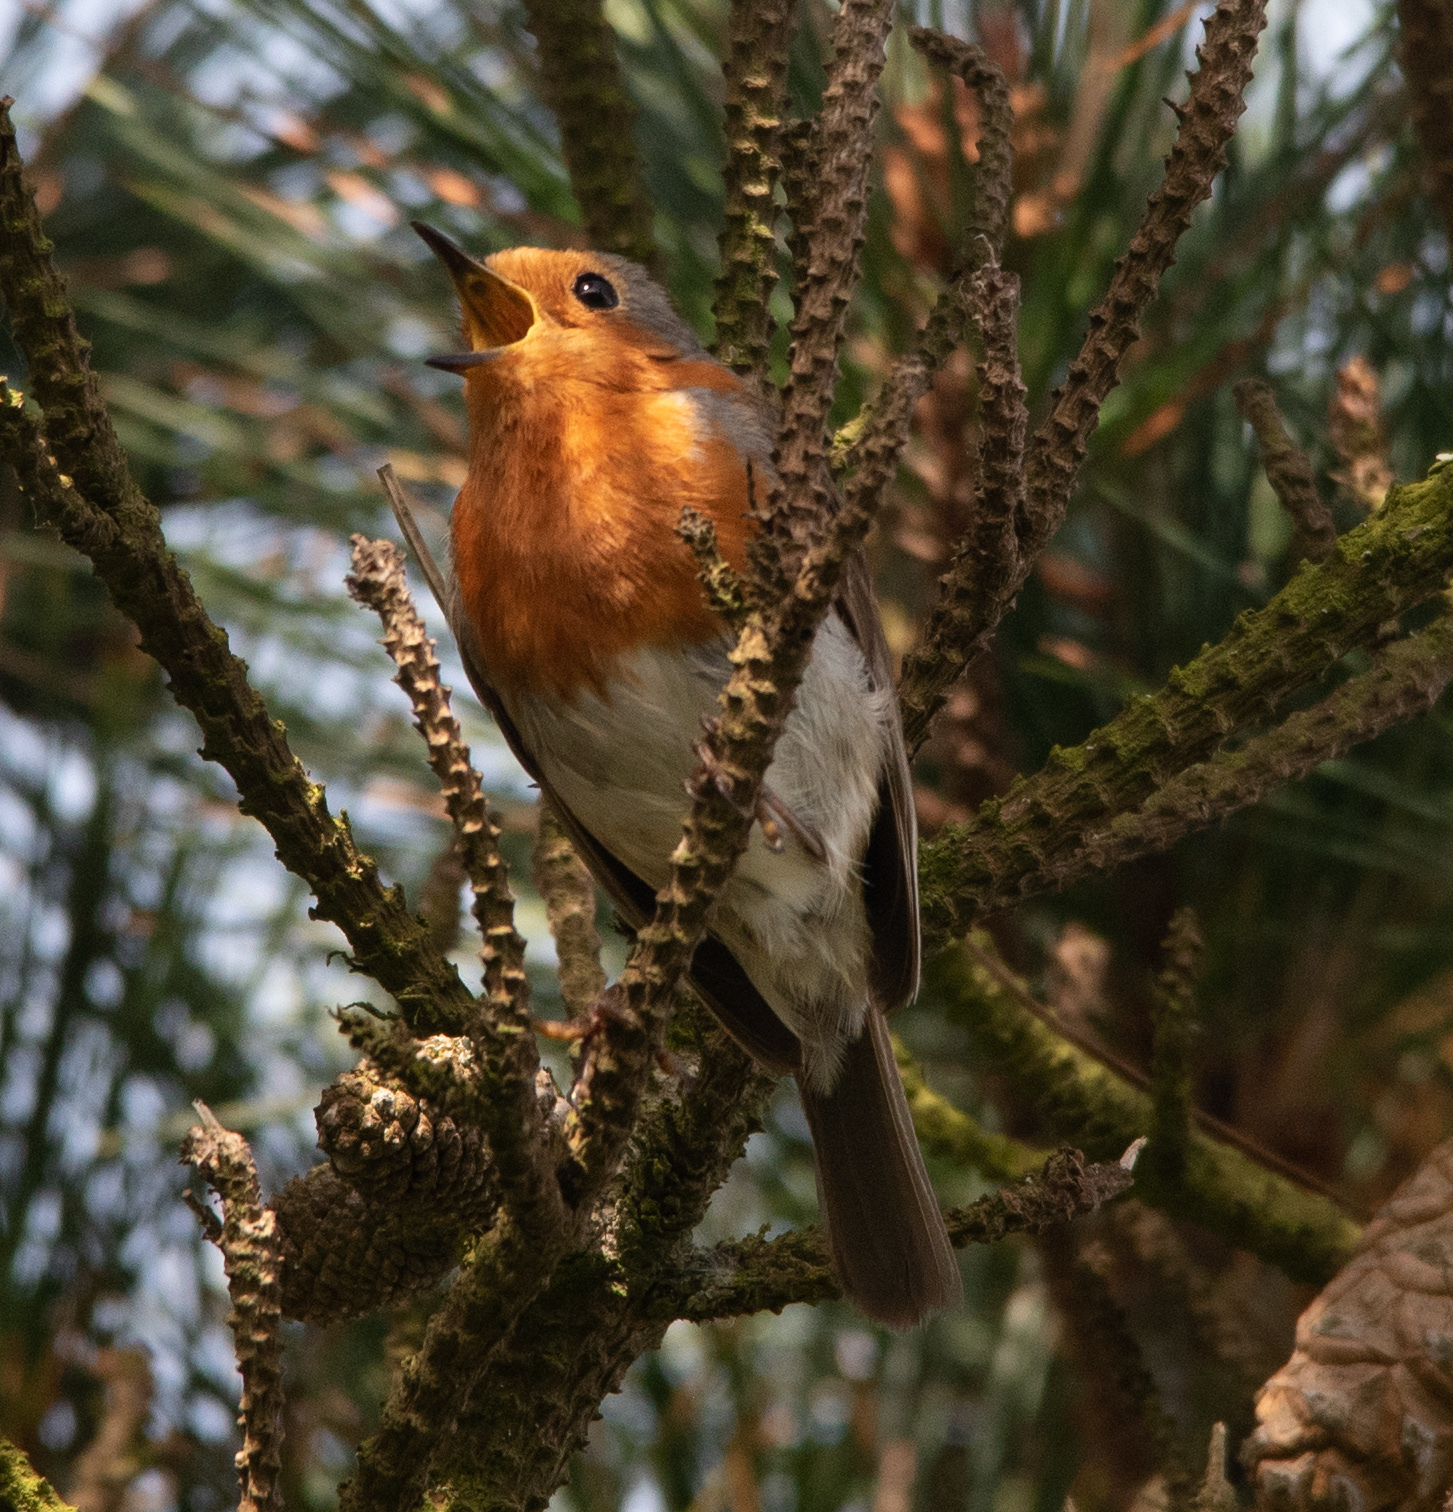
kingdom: Animalia
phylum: Chordata
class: Aves
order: Passeriformes
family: Muscicapidae
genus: Erithacus
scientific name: Erithacus rubecula
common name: European robin
